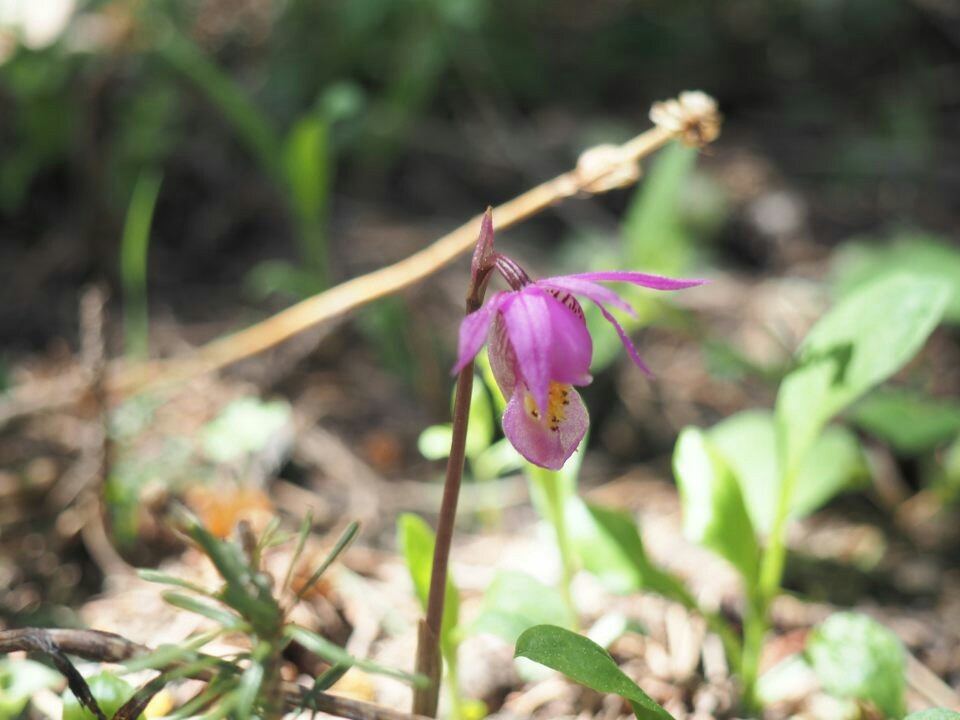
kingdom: Plantae
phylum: Tracheophyta
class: Liliopsida
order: Asparagales
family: Orchidaceae
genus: Calypso
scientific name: Calypso bulbosa
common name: Calypso
